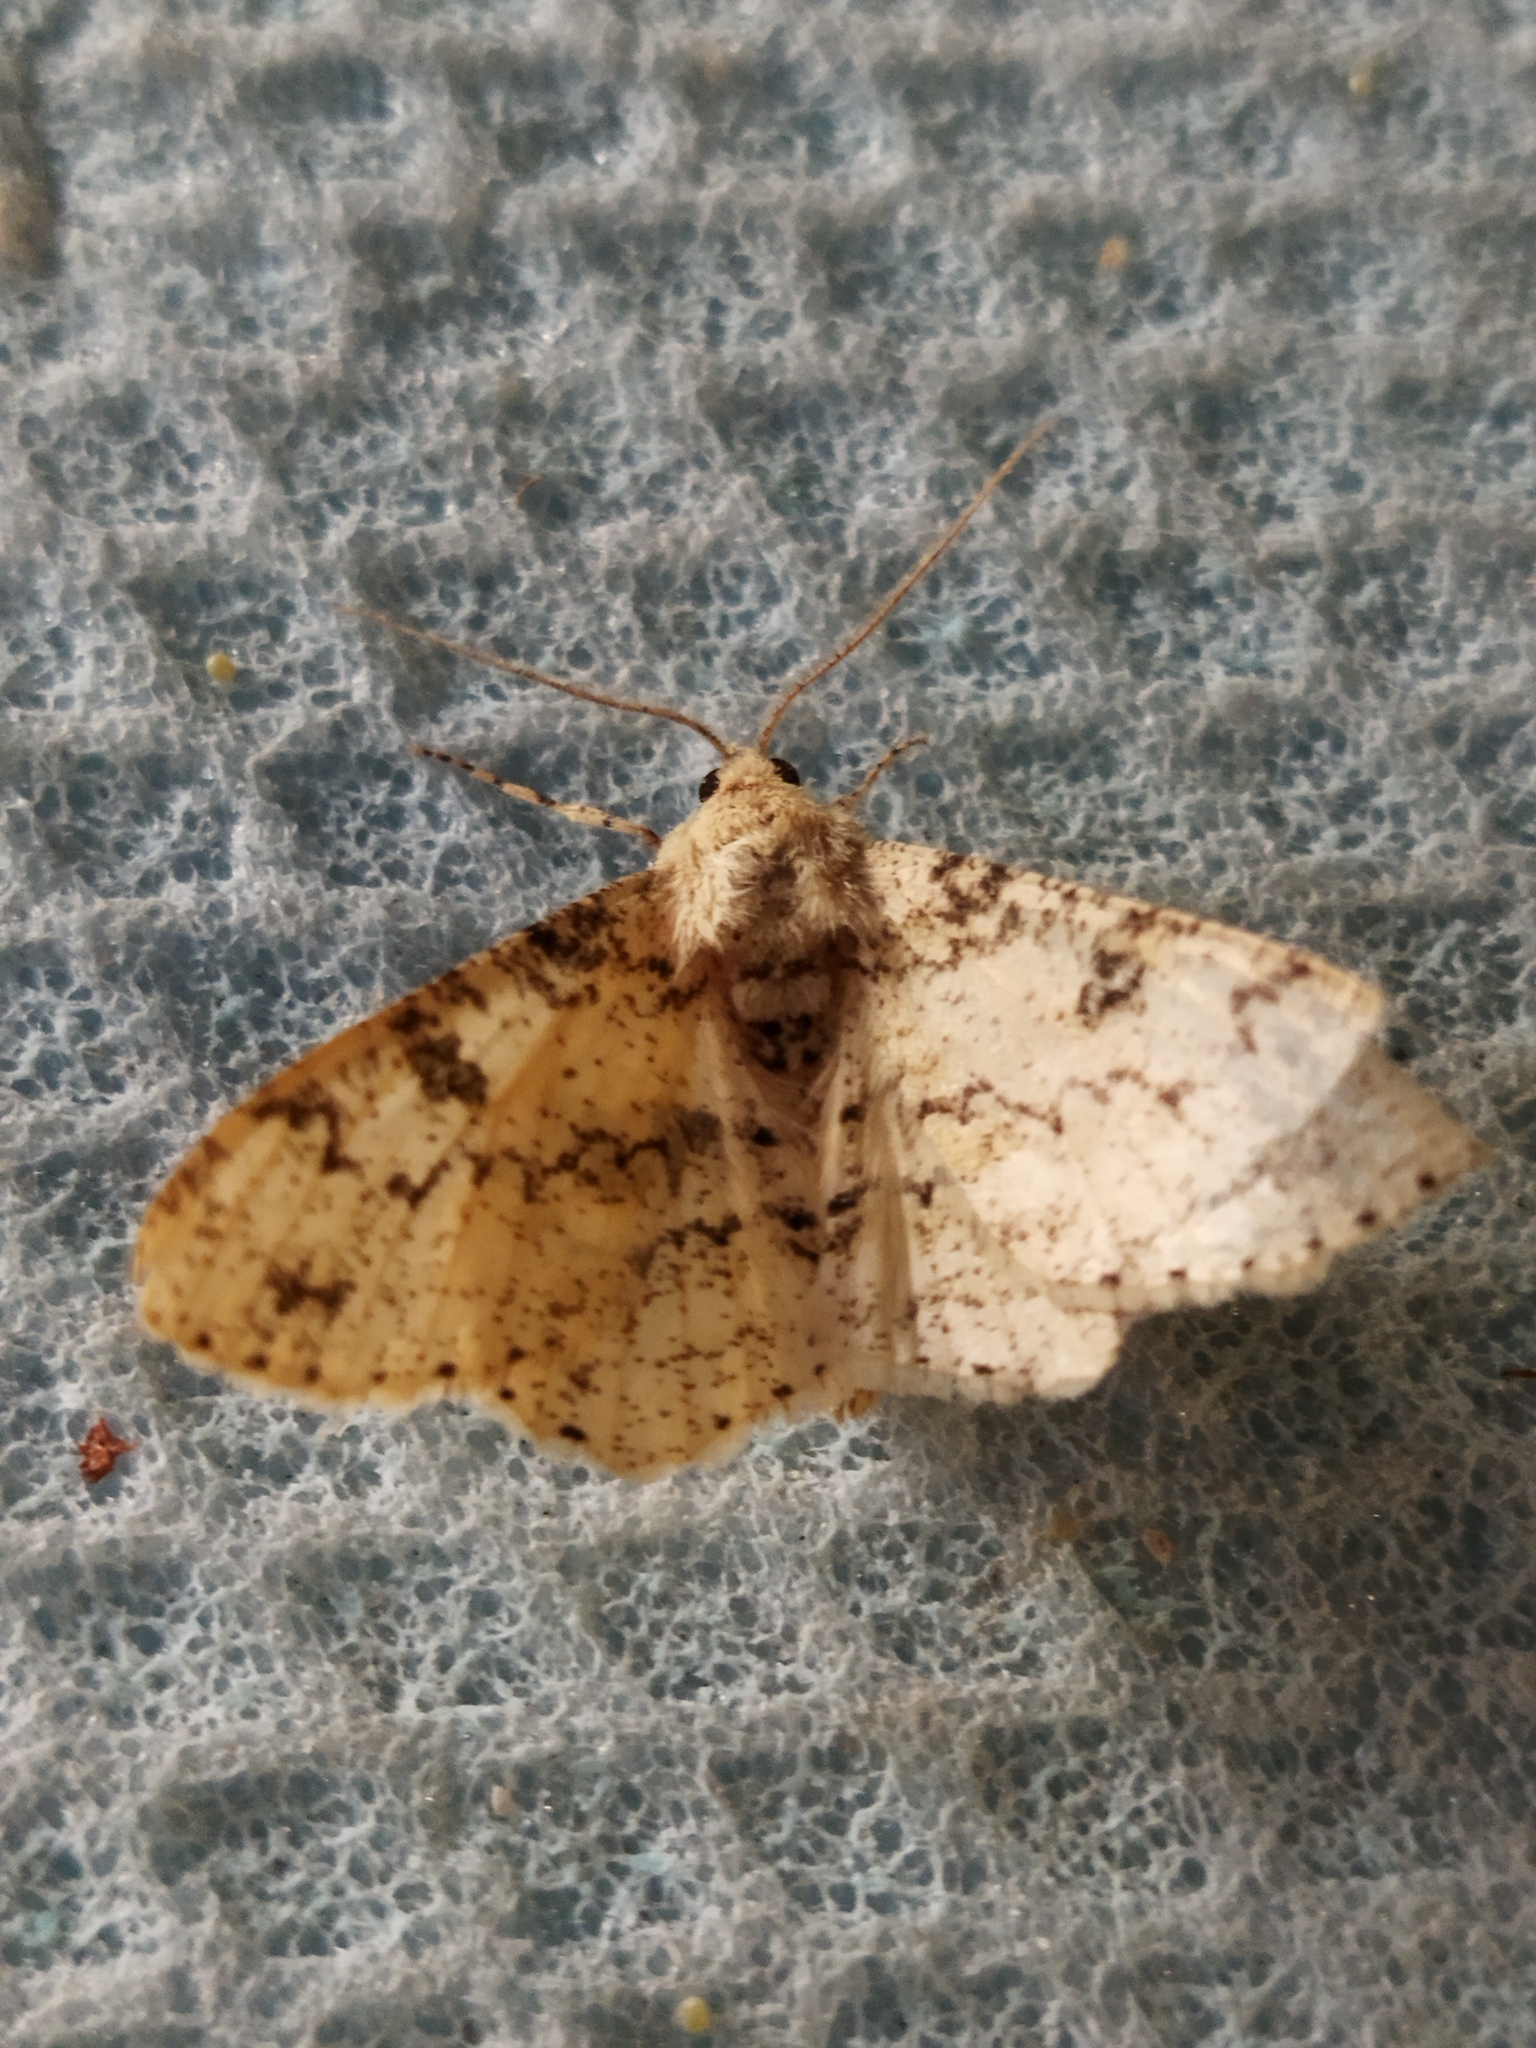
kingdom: Animalia
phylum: Arthropoda
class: Insecta
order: Lepidoptera
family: Geometridae
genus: Ascotis
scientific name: Ascotis selenaria
